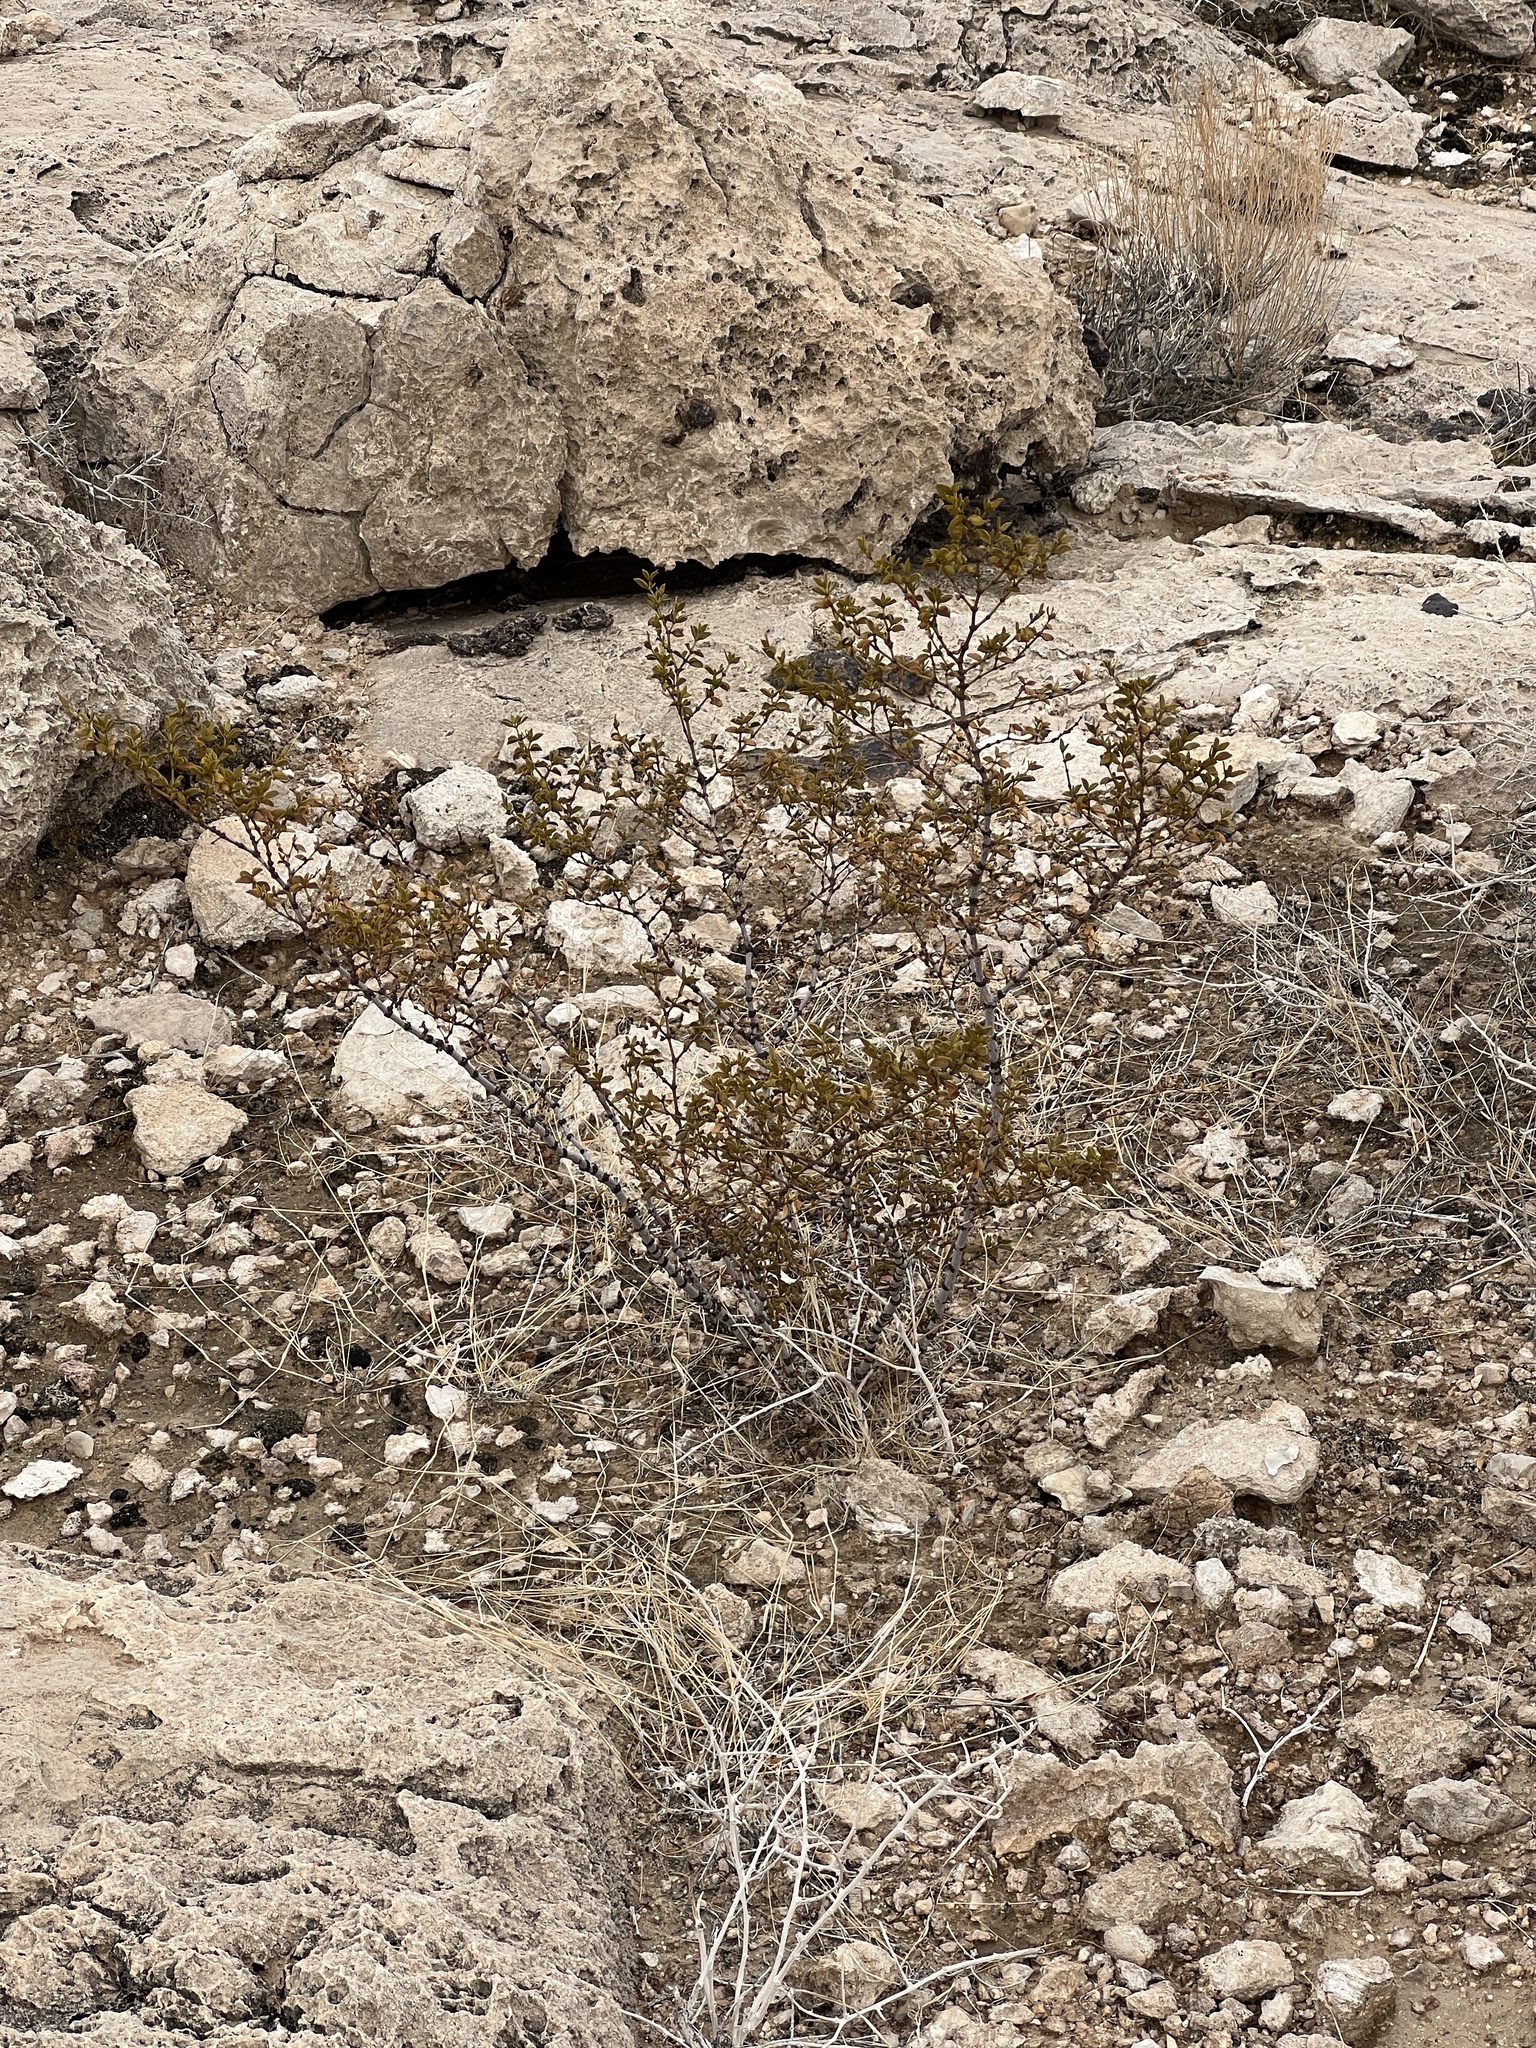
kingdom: Plantae
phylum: Tracheophyta
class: Magnoliopsida
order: Zygophyllales
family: Zygophyllaceae
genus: Larrea
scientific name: Larrea tridentata
